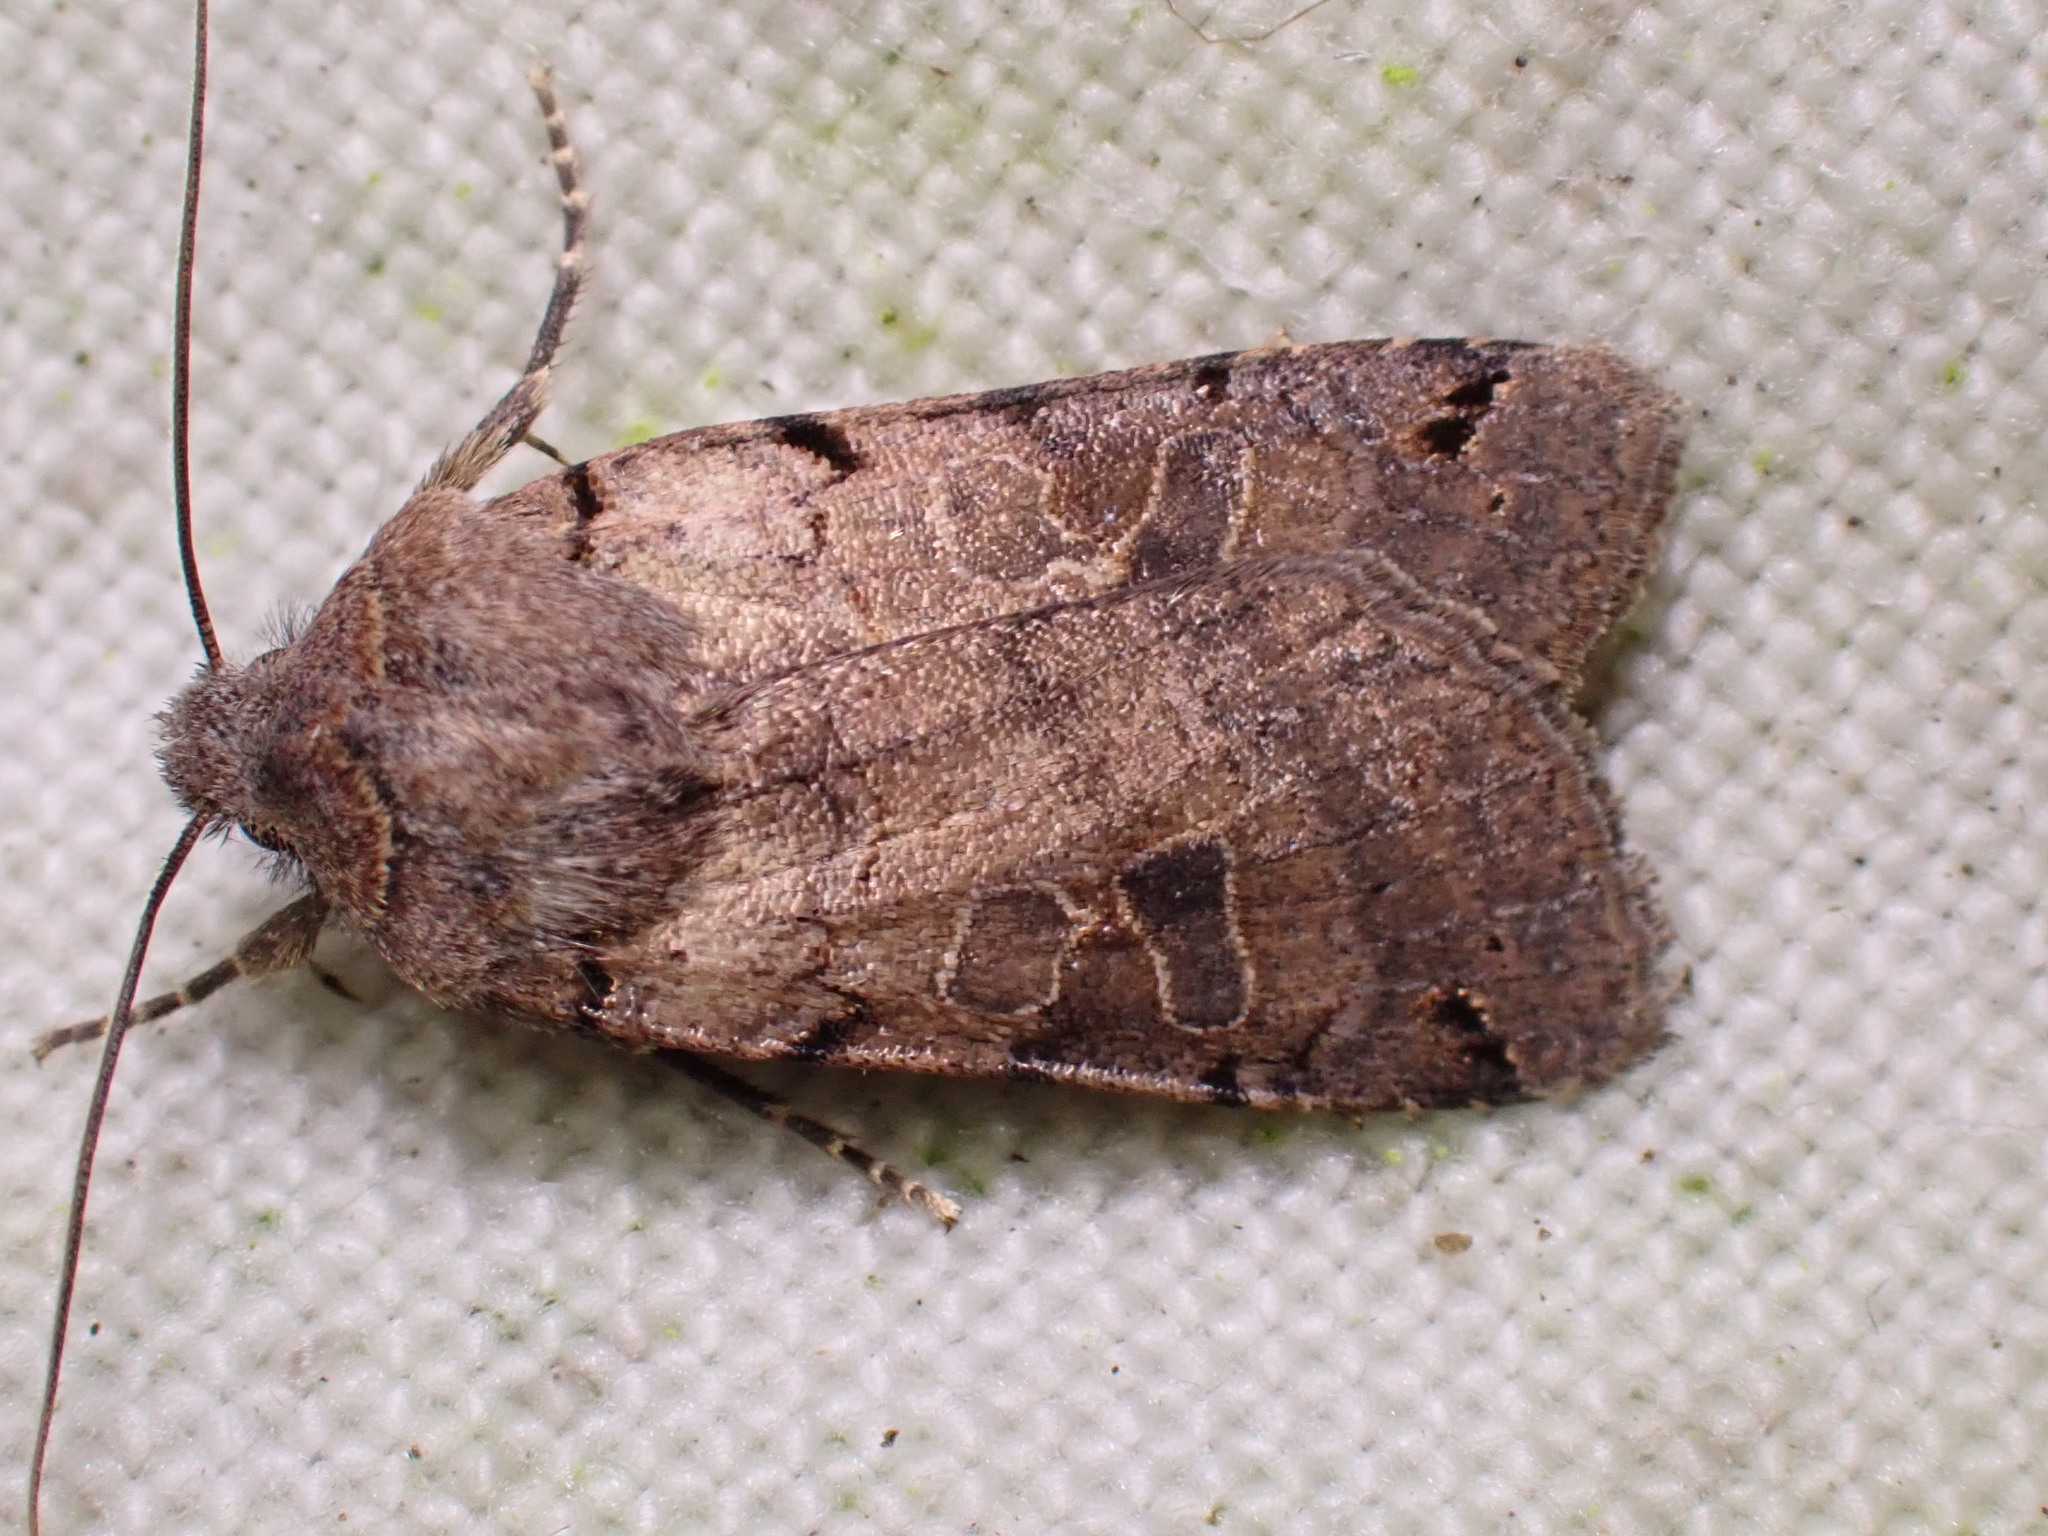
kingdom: Animalia
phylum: Arthropoda
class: Insecta
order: Lepidoptera
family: Noctuidae
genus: Agrochola
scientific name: Agrochola litura
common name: Brown-spot pinion
